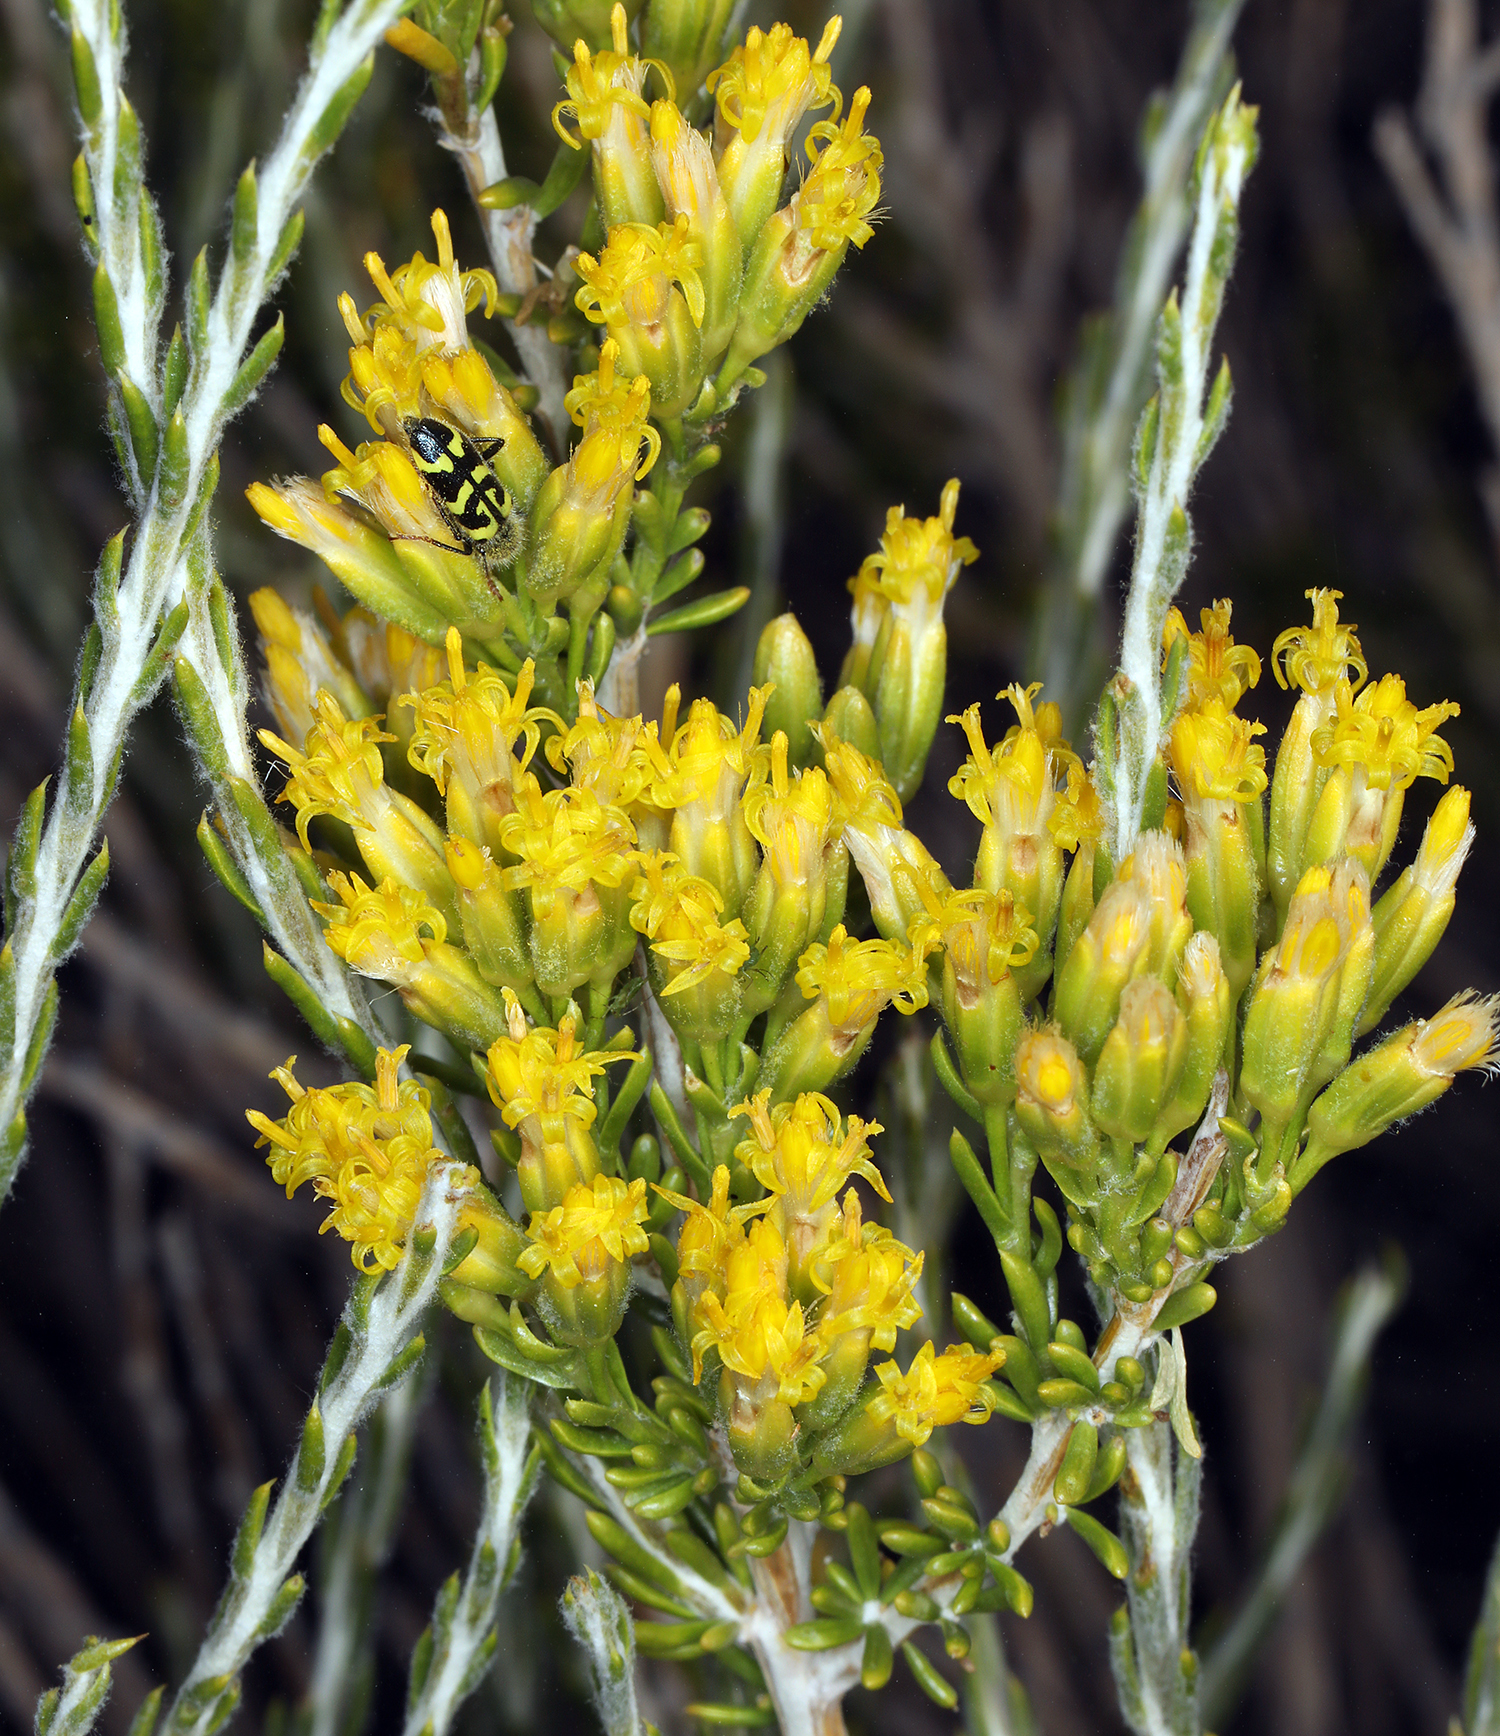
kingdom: Plantae
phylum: Tracheophyta
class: Magnoliopsida
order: Asterales
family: Asteraceae
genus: Tetradymia
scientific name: Tetradymia glabrata
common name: Smooth tetradymia
